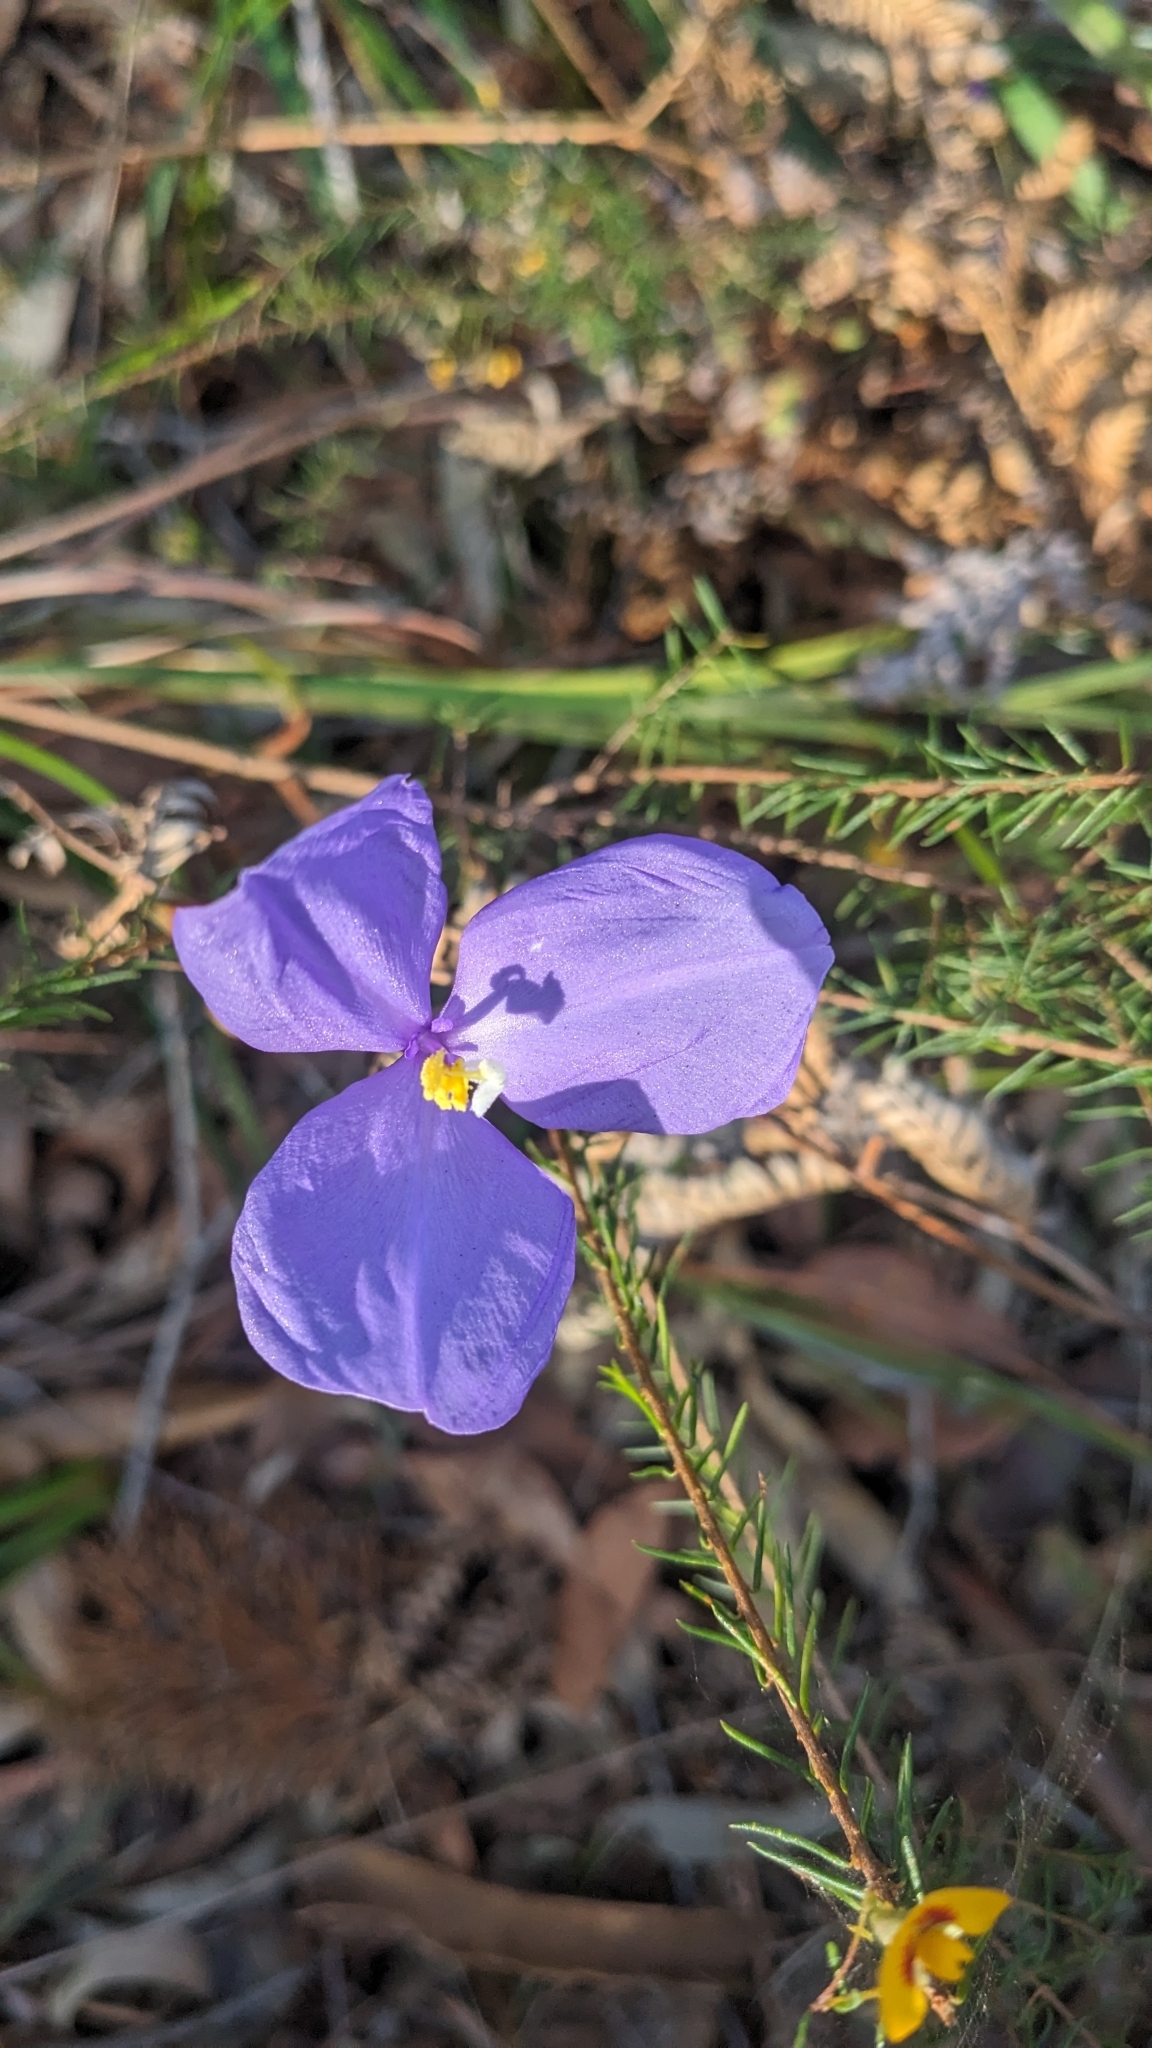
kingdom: Plantae
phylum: Tracheophyta
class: Liliopsida
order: Asparagales
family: Iridaceae
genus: Patersonia
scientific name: Patersonia glabrata
